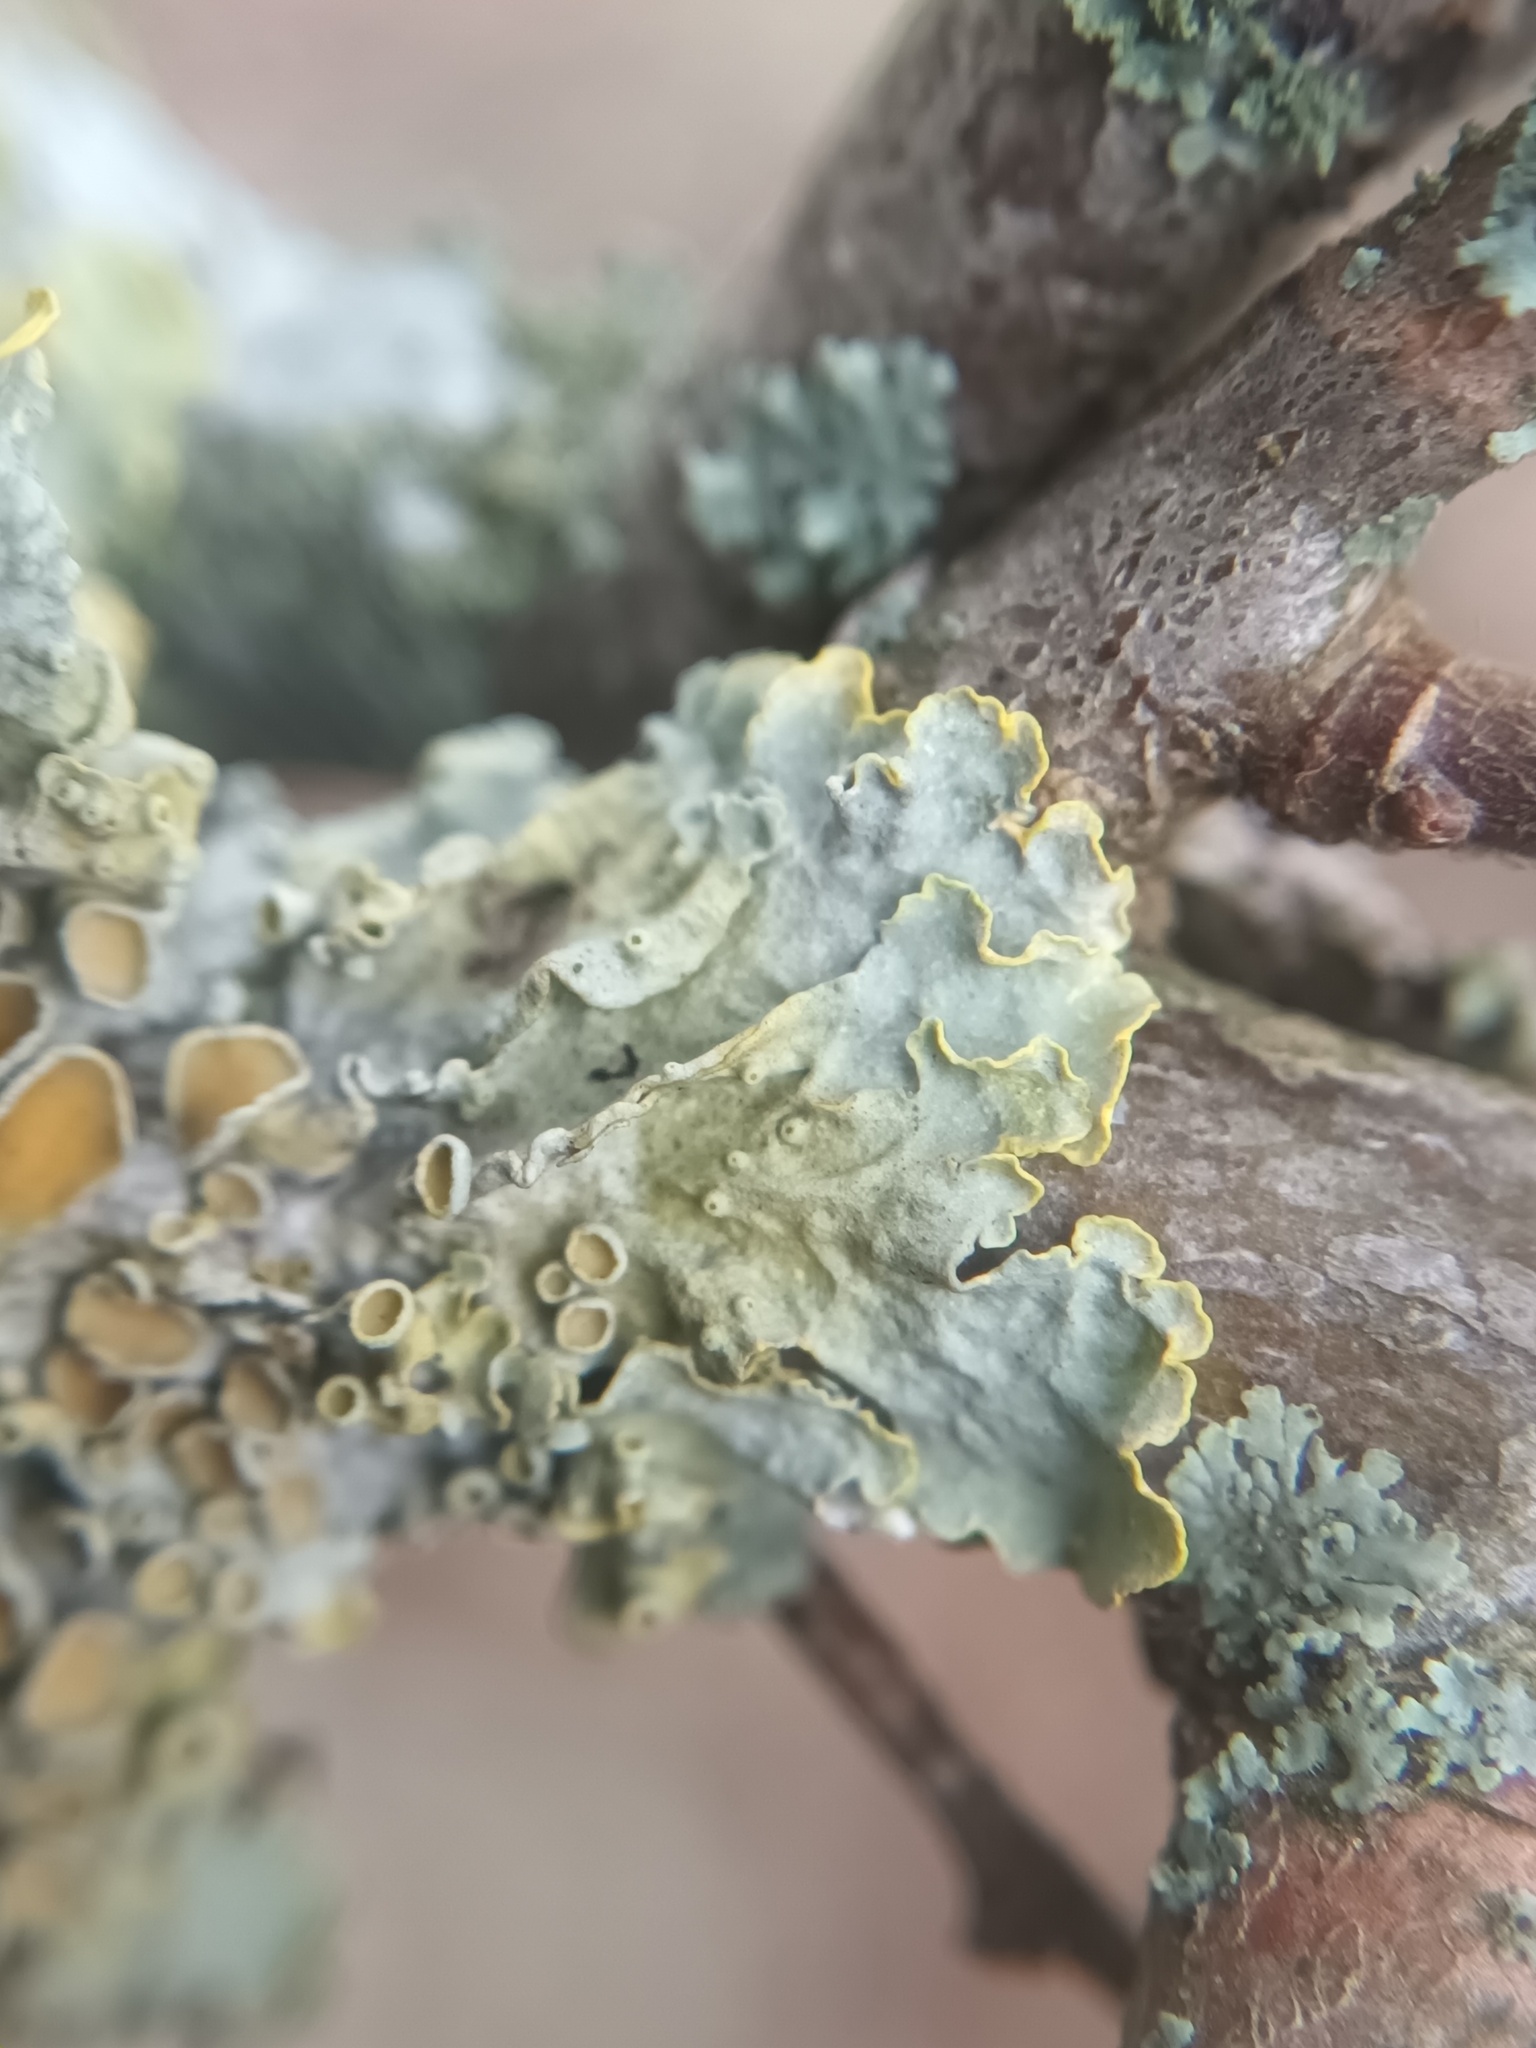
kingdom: Fungi
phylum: Ascomycota
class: Lecanoromycetes
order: Teloschistales
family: Teloschistaceae
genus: Xanthoria
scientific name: Xanthoria parietina
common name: Common orange lichen
